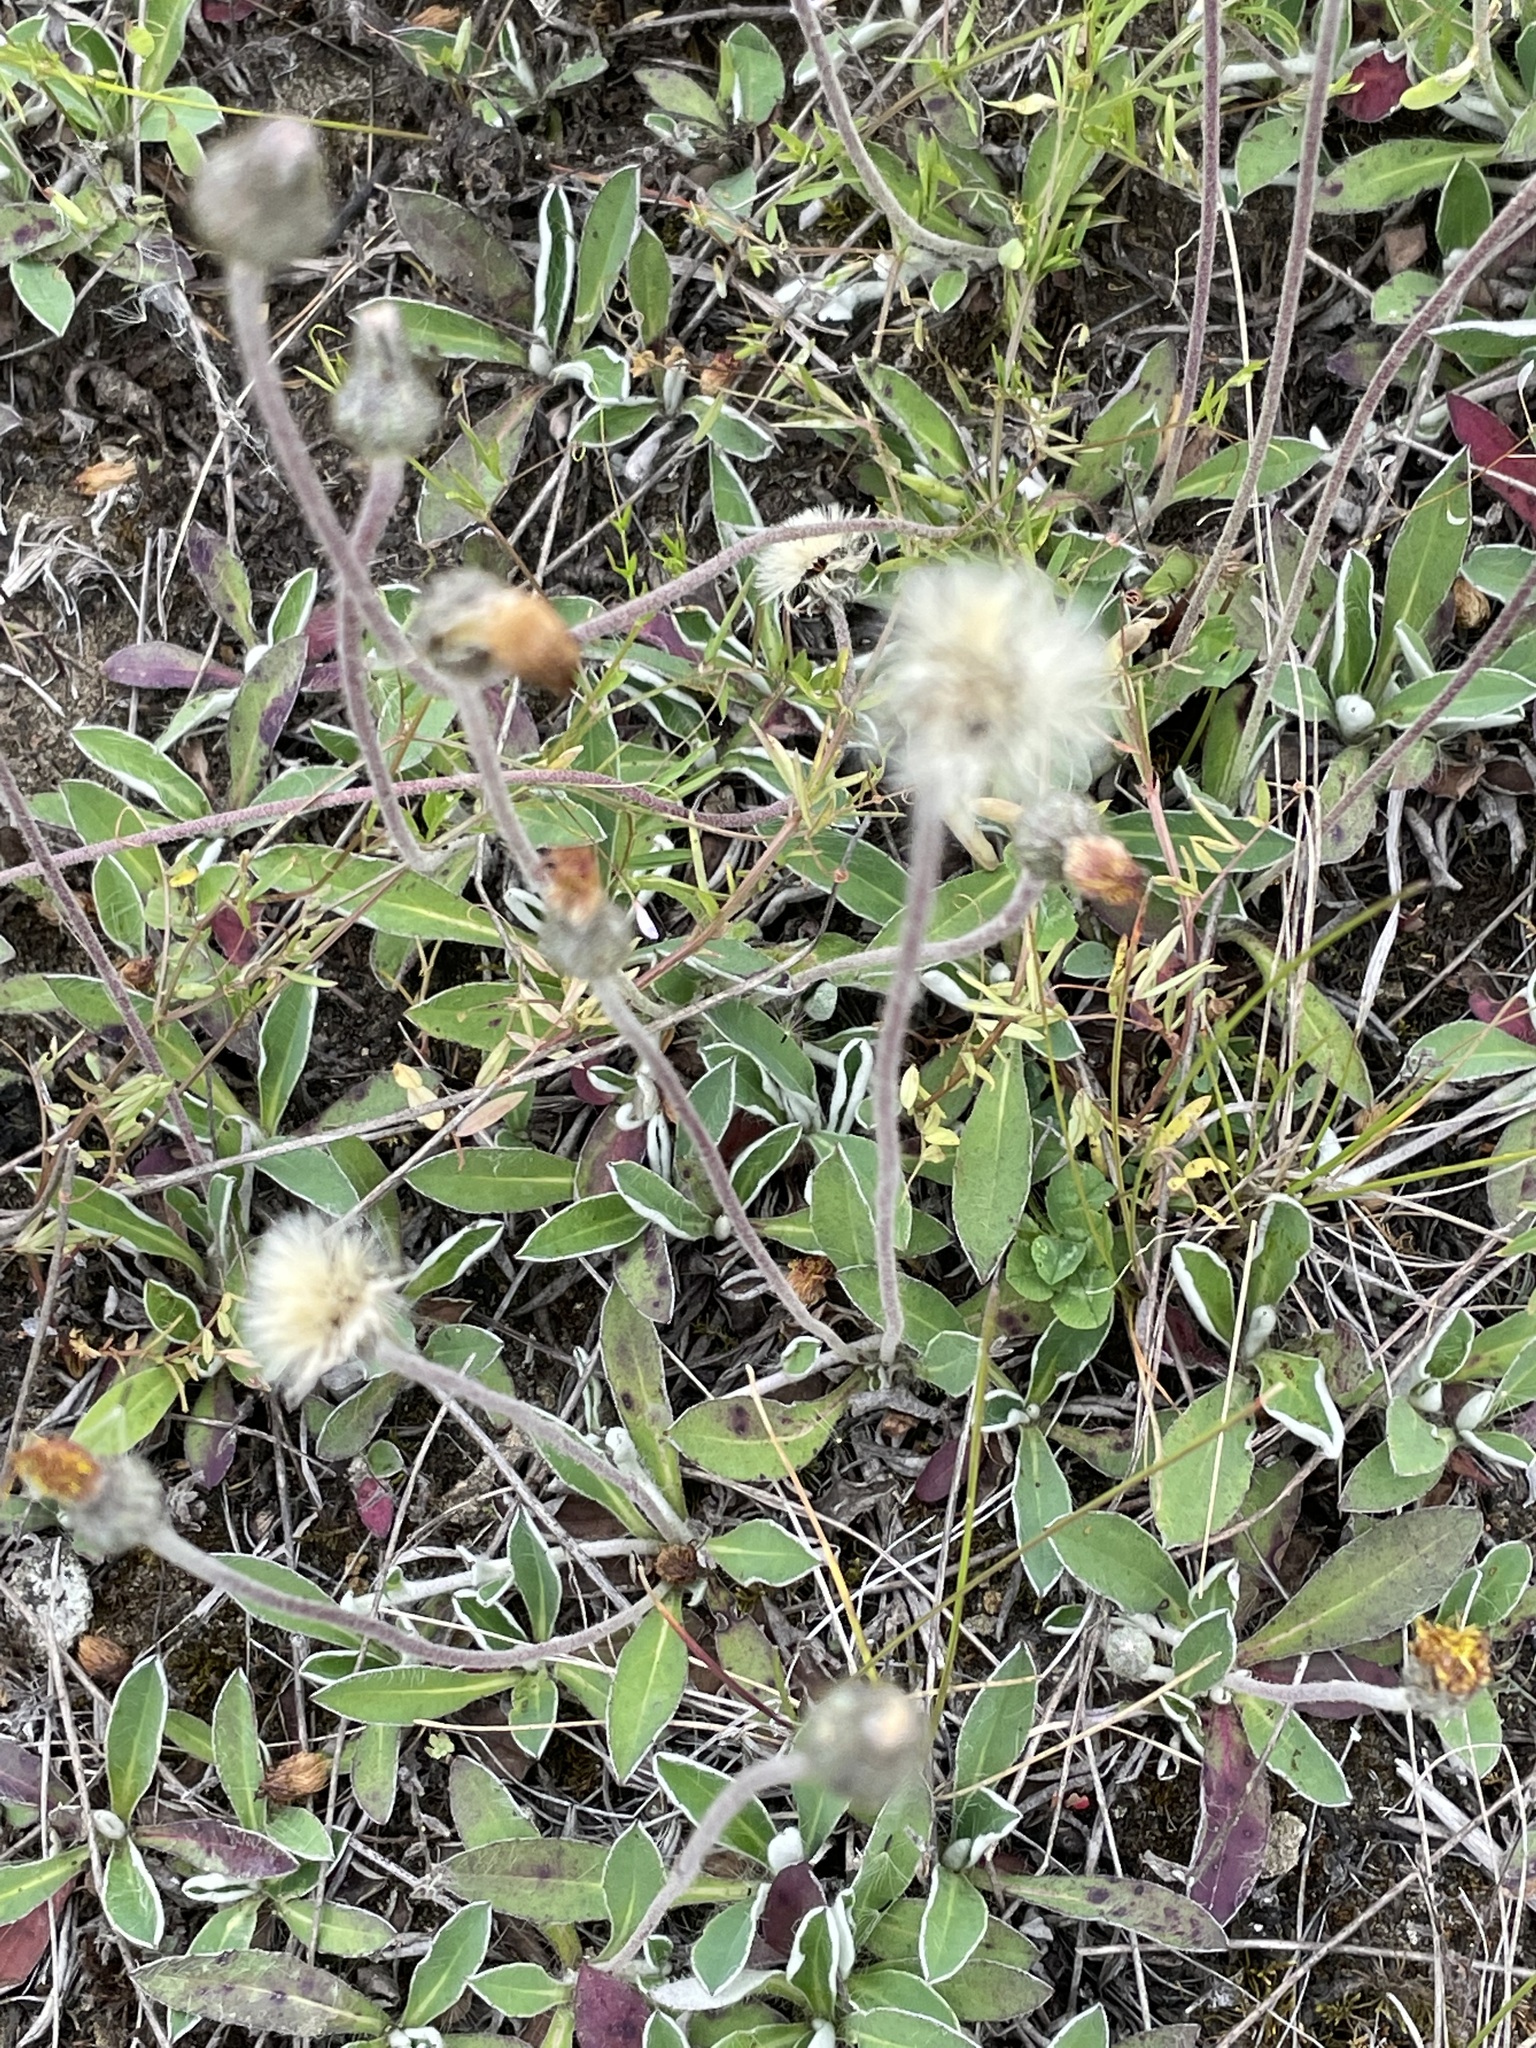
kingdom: Plantae
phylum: Tracheophyta
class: Magnoliopsida
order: Asterales
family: Asteraceae
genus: Pilosella
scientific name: Pilosella officinarum
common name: Mouse-ear hawkweed
